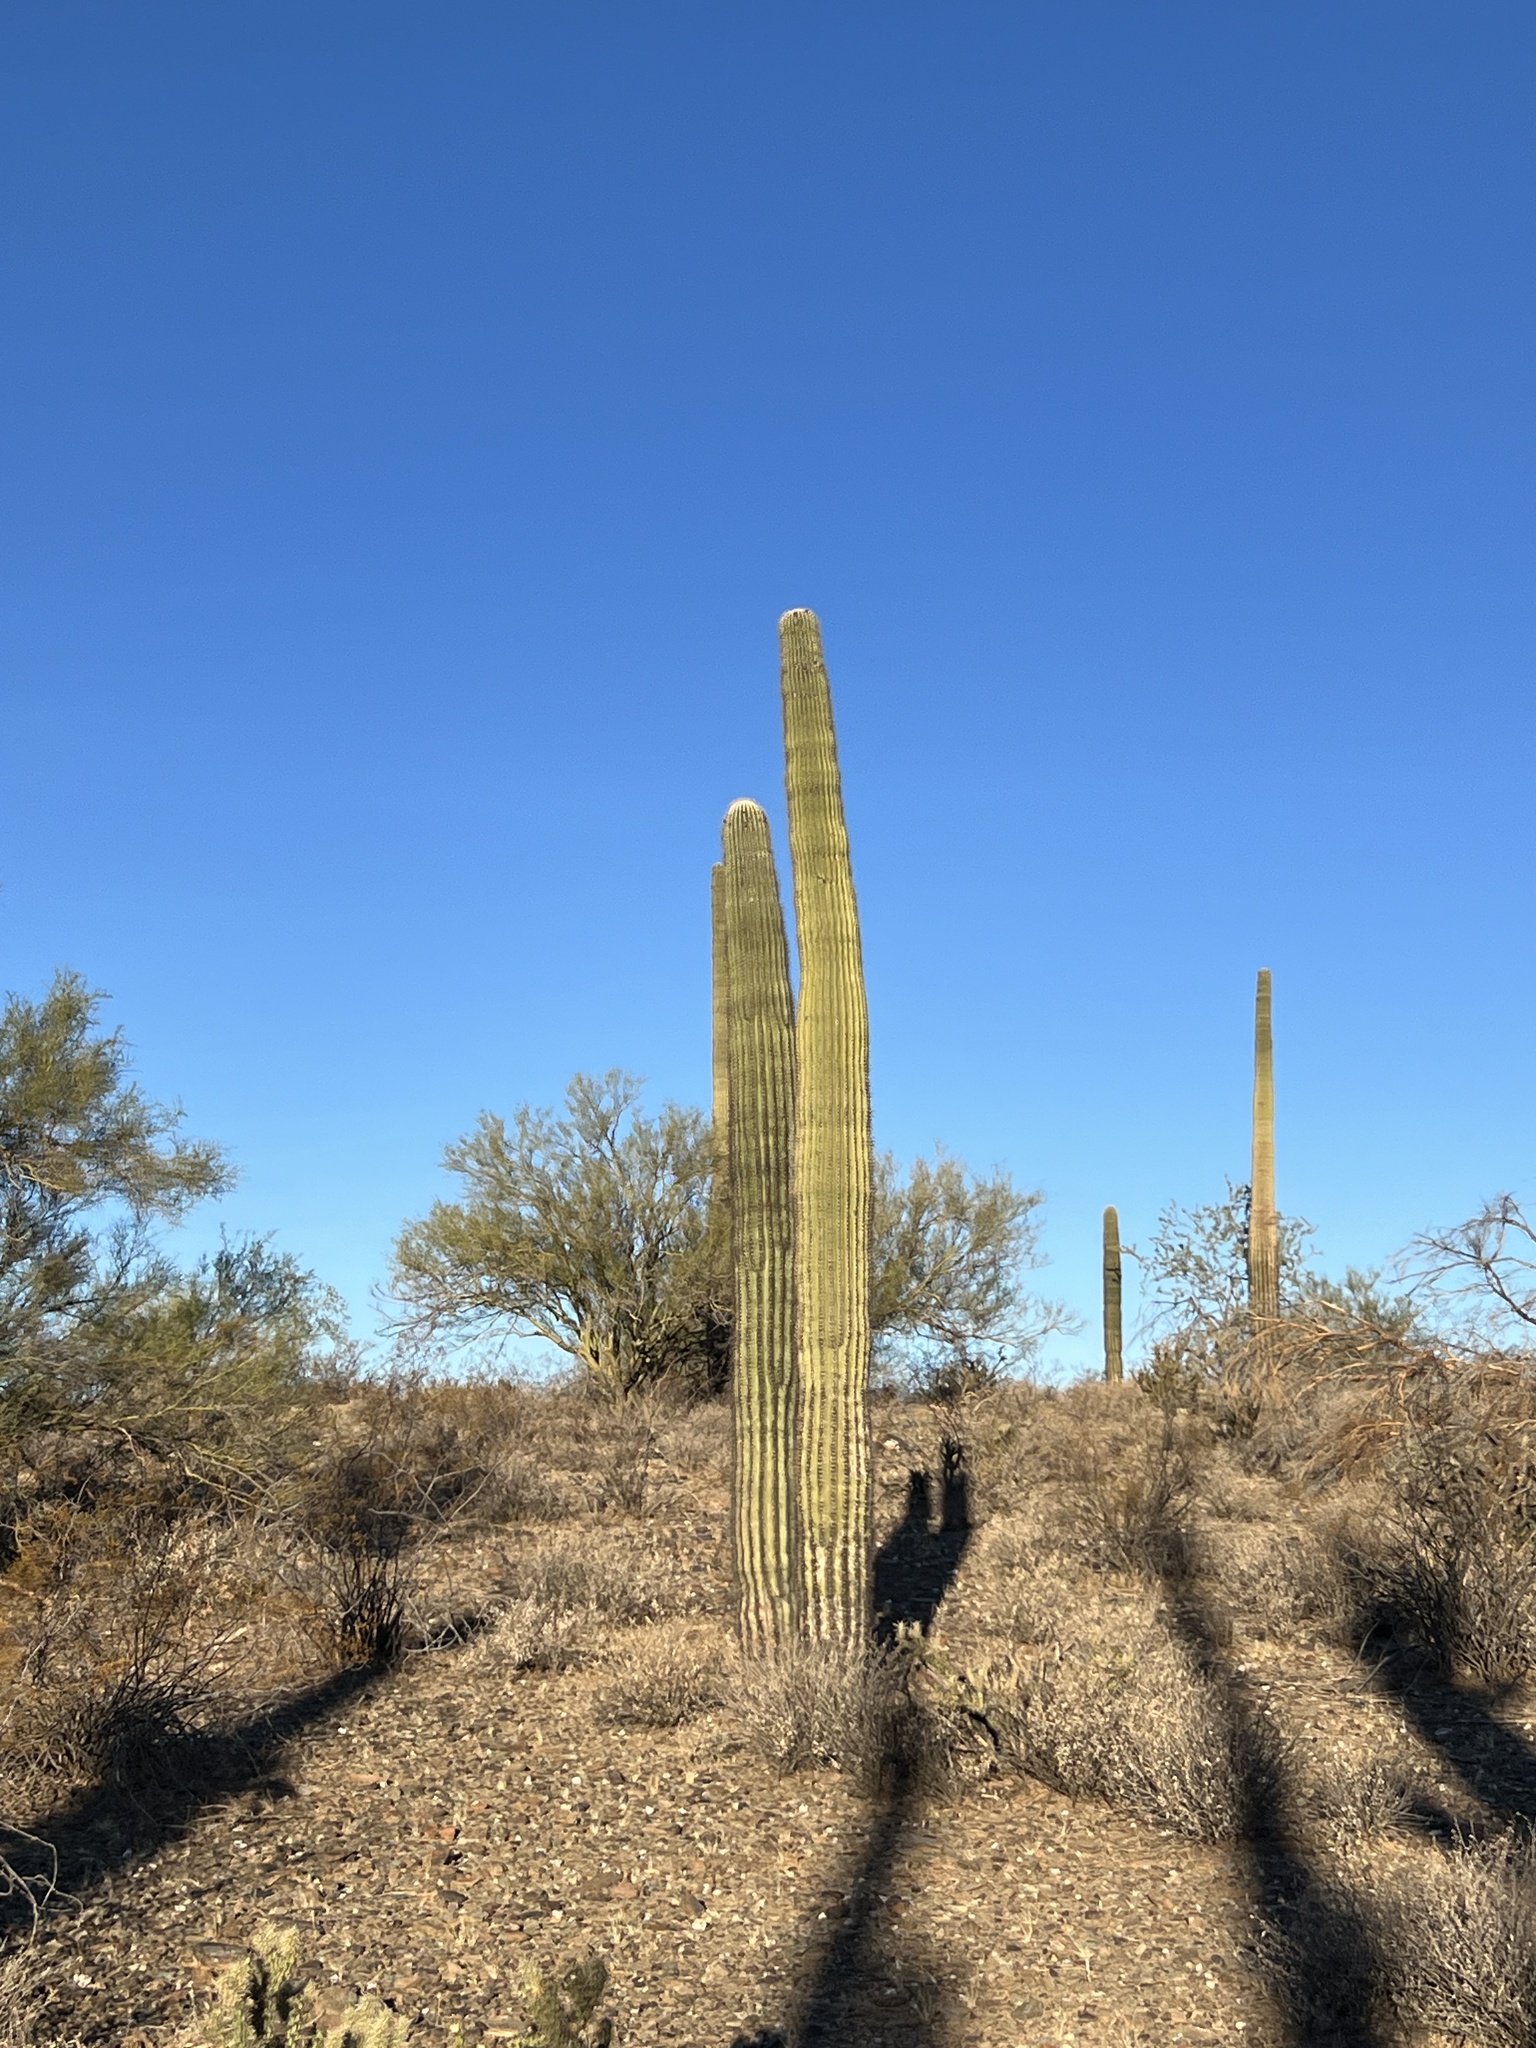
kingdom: Plantae
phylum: Tracheophyta
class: Magnoliopsida
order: Caryophyllales
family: Cactaceae
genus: Carnegiea
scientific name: Carnegiea gigantea
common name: Saguaro
